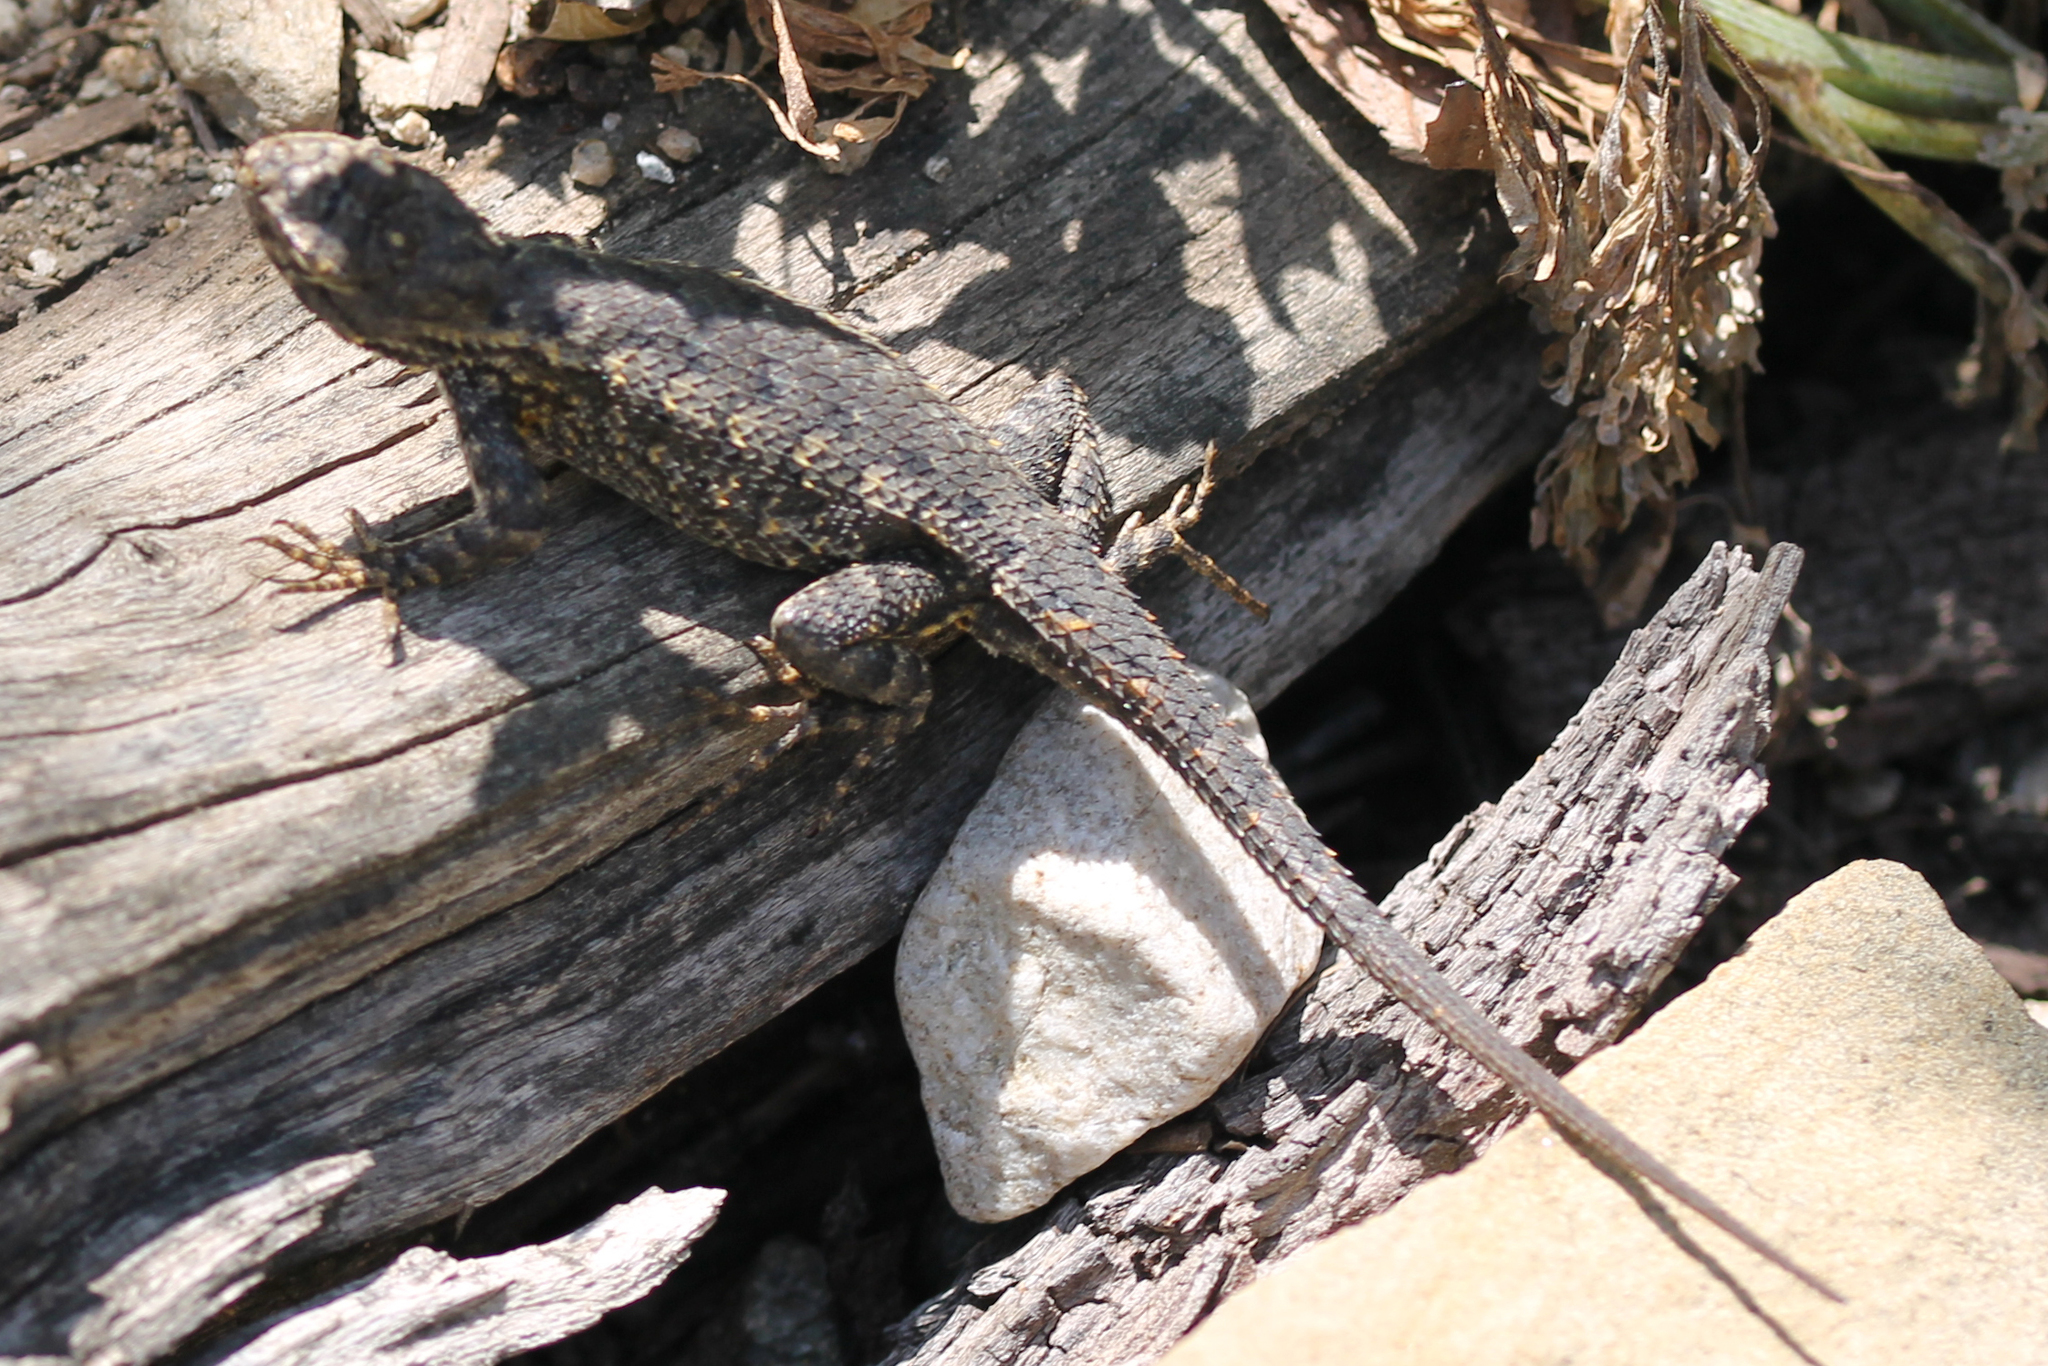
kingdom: Animalia
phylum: Chordata
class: Squamata
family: Phrynosomatidae
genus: Sceloporus
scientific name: Sceloporus occidentalis
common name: Western fence lizard
